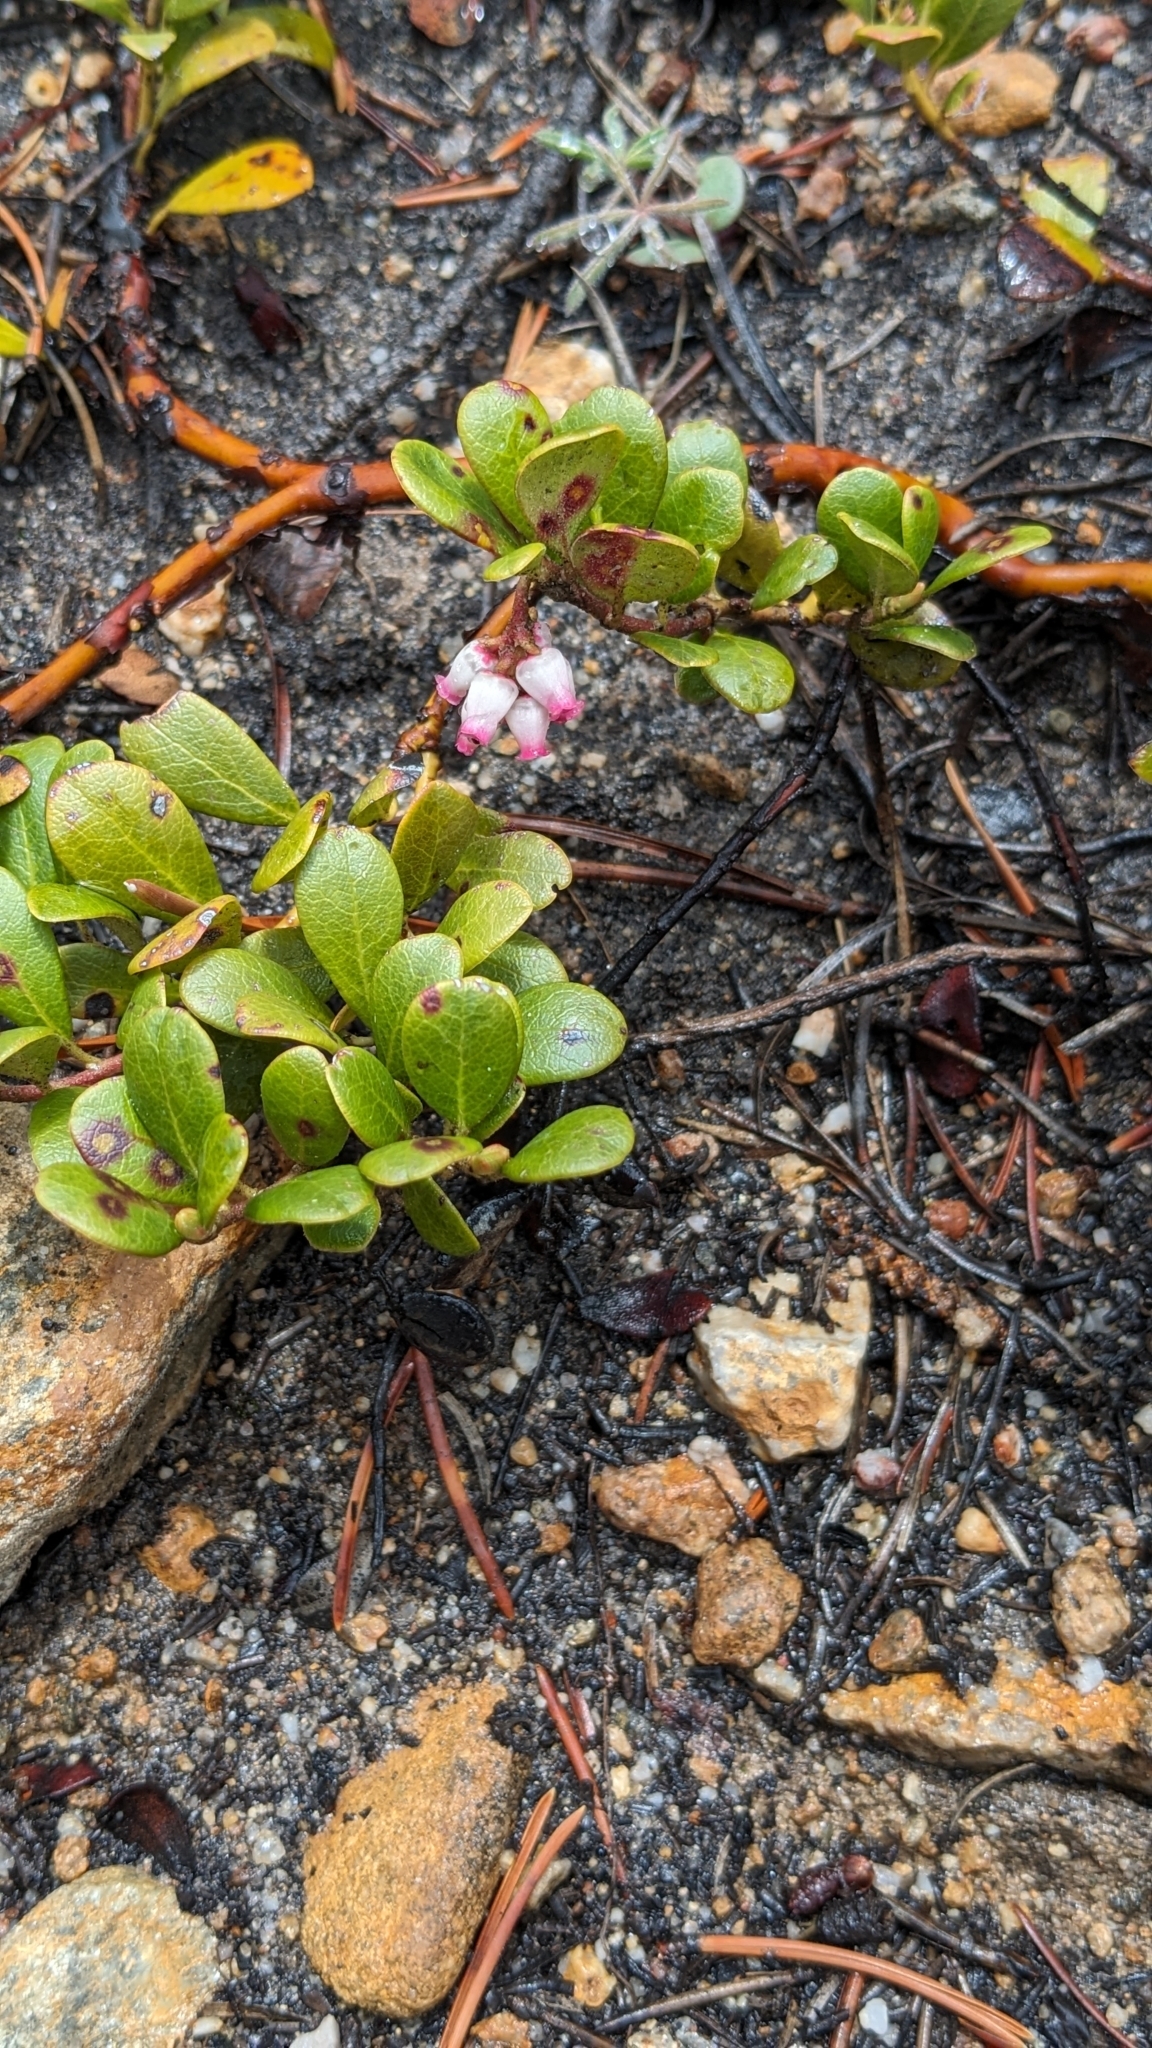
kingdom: Plantae
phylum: Tracheophyta
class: Magnoliopsida
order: Ericales
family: Ericaceae
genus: Arctostaphylos
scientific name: Arctostaphylos uva-ursi
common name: Bearberry
